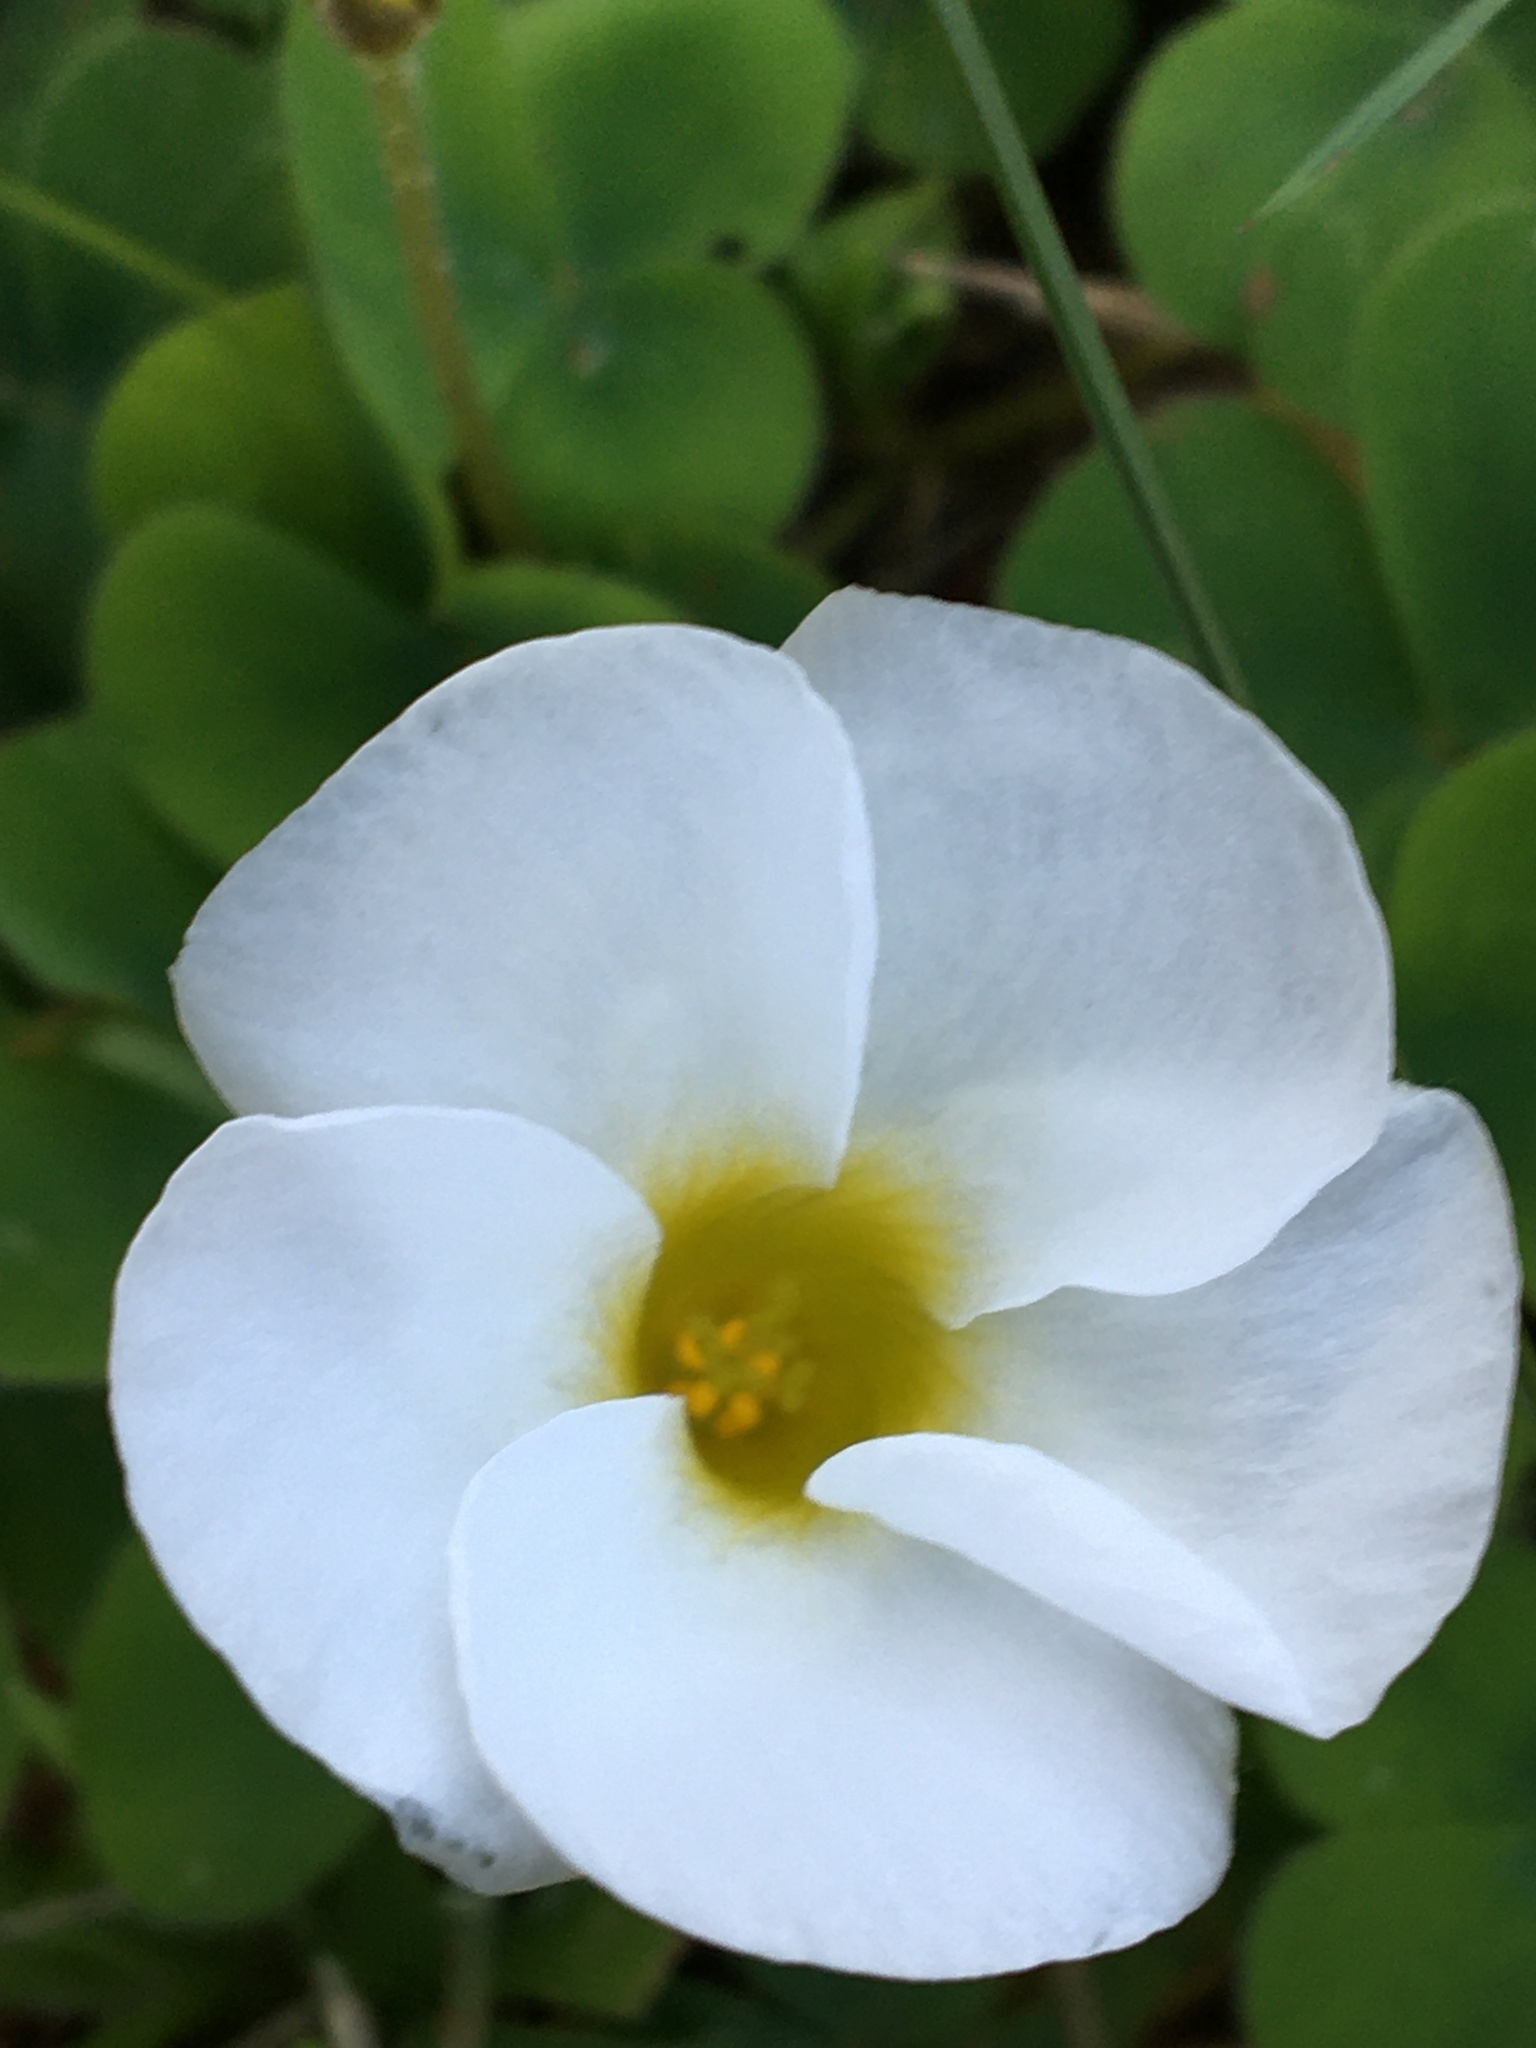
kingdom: Plantae
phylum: Tracheophyta
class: Magnoliopsida
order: Oxalidales
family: Oxalidaceae
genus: Oxalis
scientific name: Oxalis purpurea
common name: Purple woodsorrel
